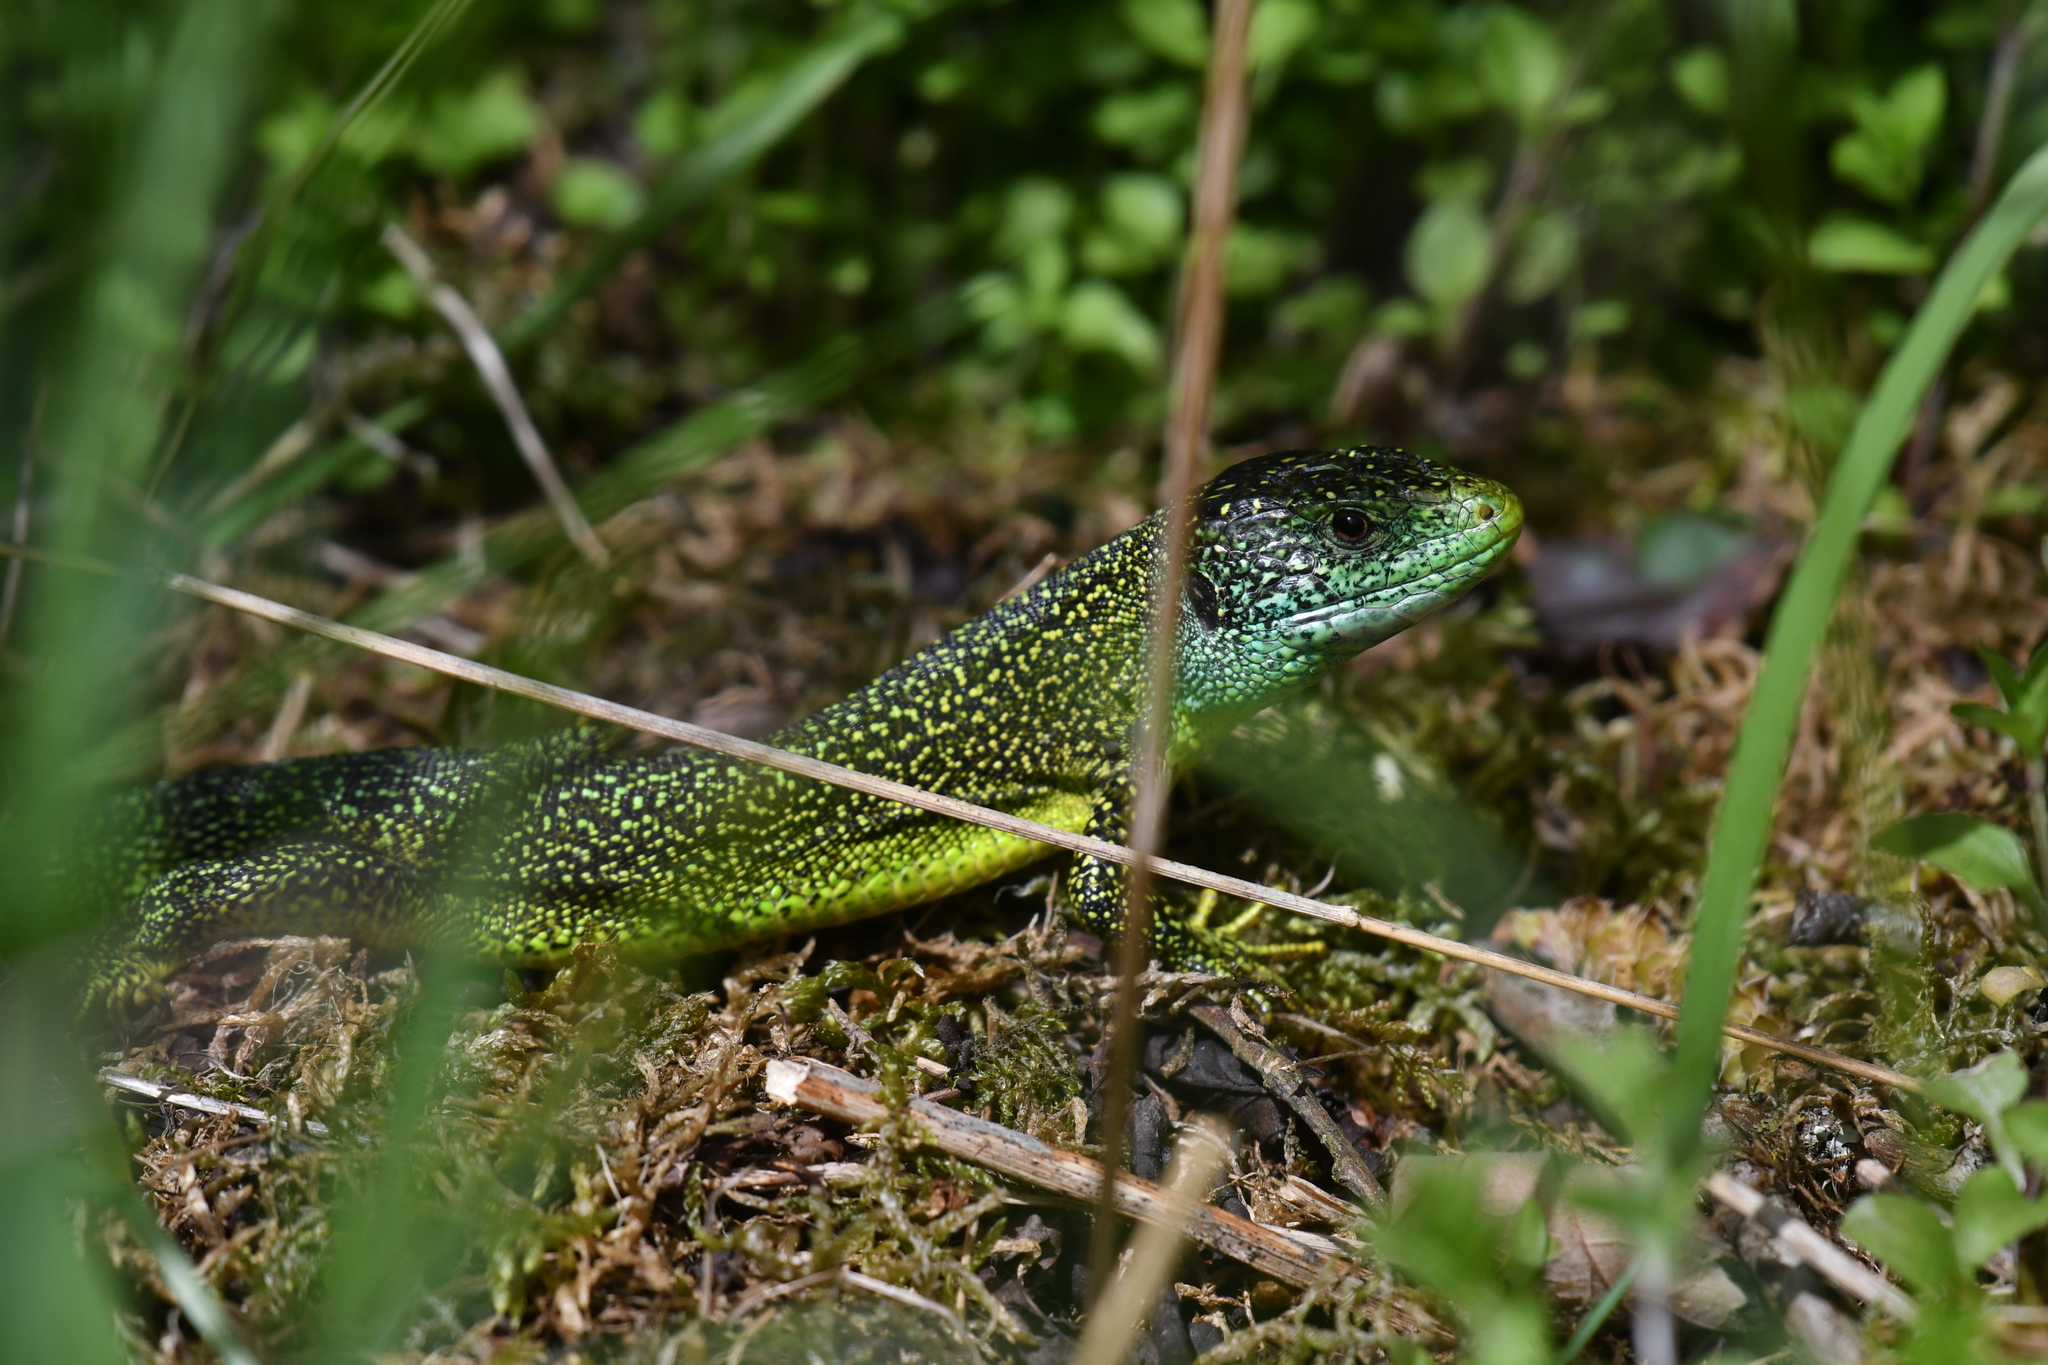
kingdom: Animalia
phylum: Chordata
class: Squamata
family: Lacertidae
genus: Lacerta
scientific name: Lacerta bilineata
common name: Western green lizard
